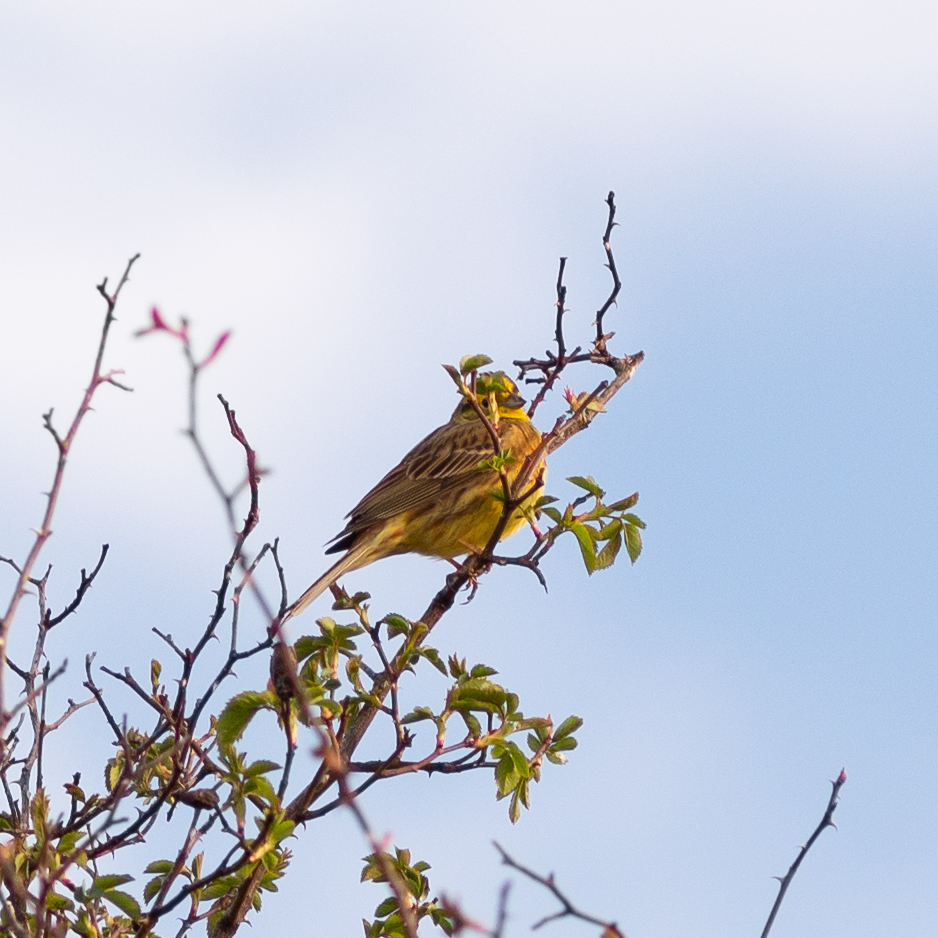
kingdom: Animalia
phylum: Chordata
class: Aves
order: Passeriformes
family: Emberizidae
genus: Emberiza
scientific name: Emberiza citrinella
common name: Yellowhammer
